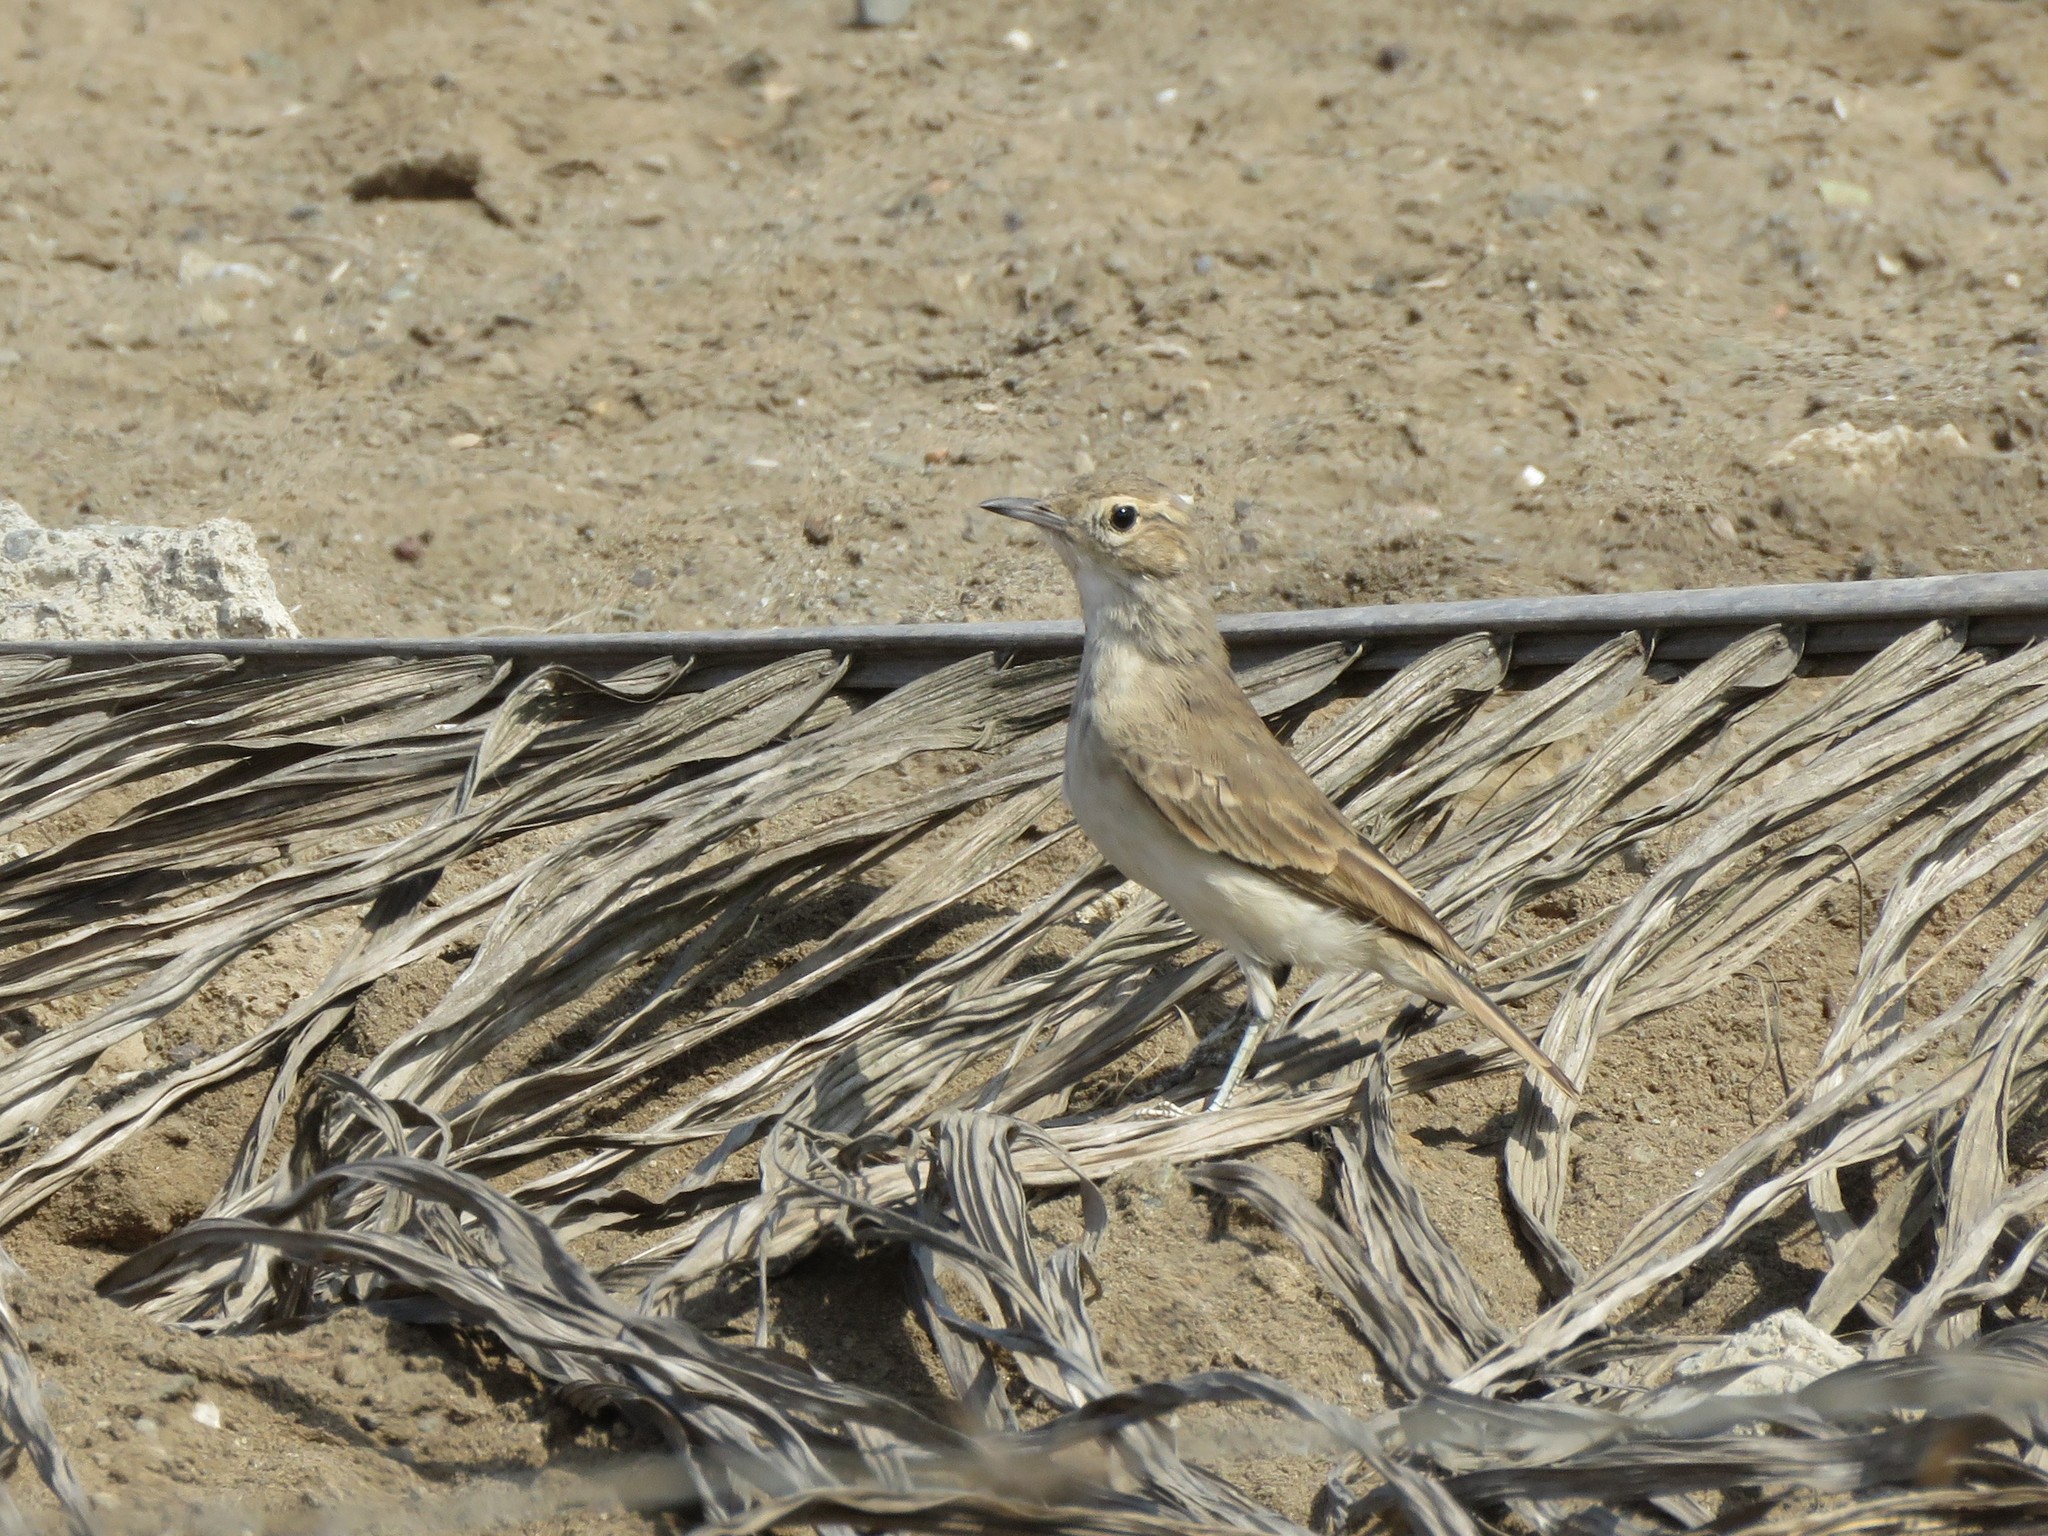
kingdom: Animalia
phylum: Chordata
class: Aves
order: Passeriformes
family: Furnariidae
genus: Geositta
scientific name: Geositta peruviana
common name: Coastal miner
